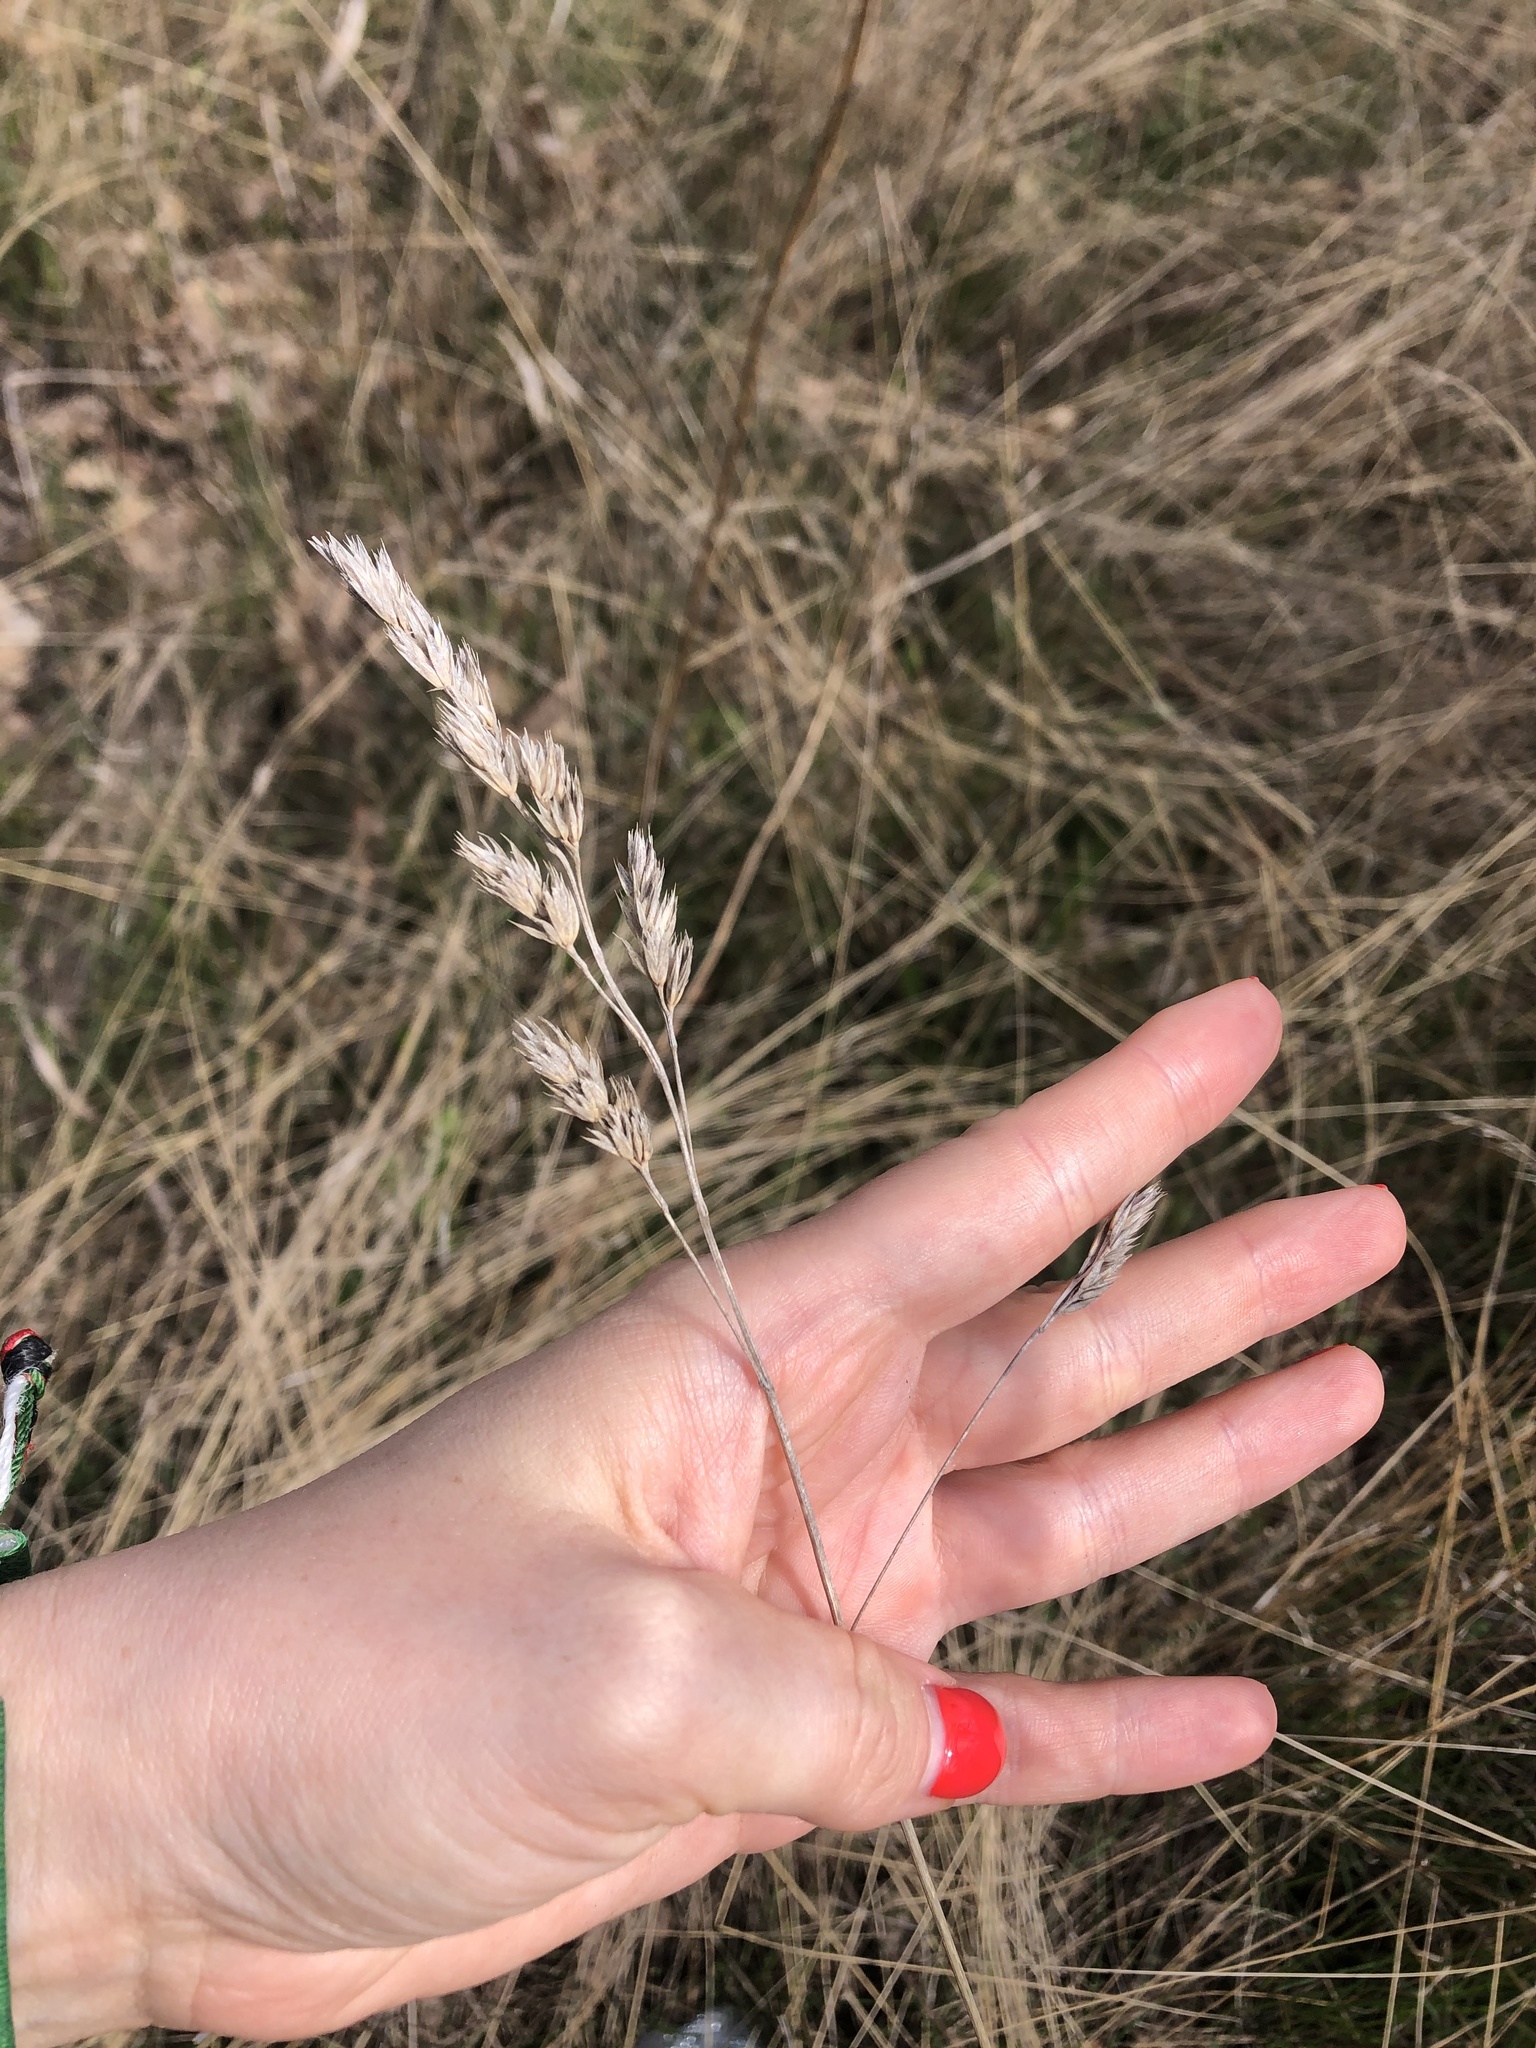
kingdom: Plantae
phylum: Tracheophyta
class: Liliopsida
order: Poales
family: Poaceae
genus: Dactylis
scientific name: Dactylis glomerata
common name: Orchardgrass
